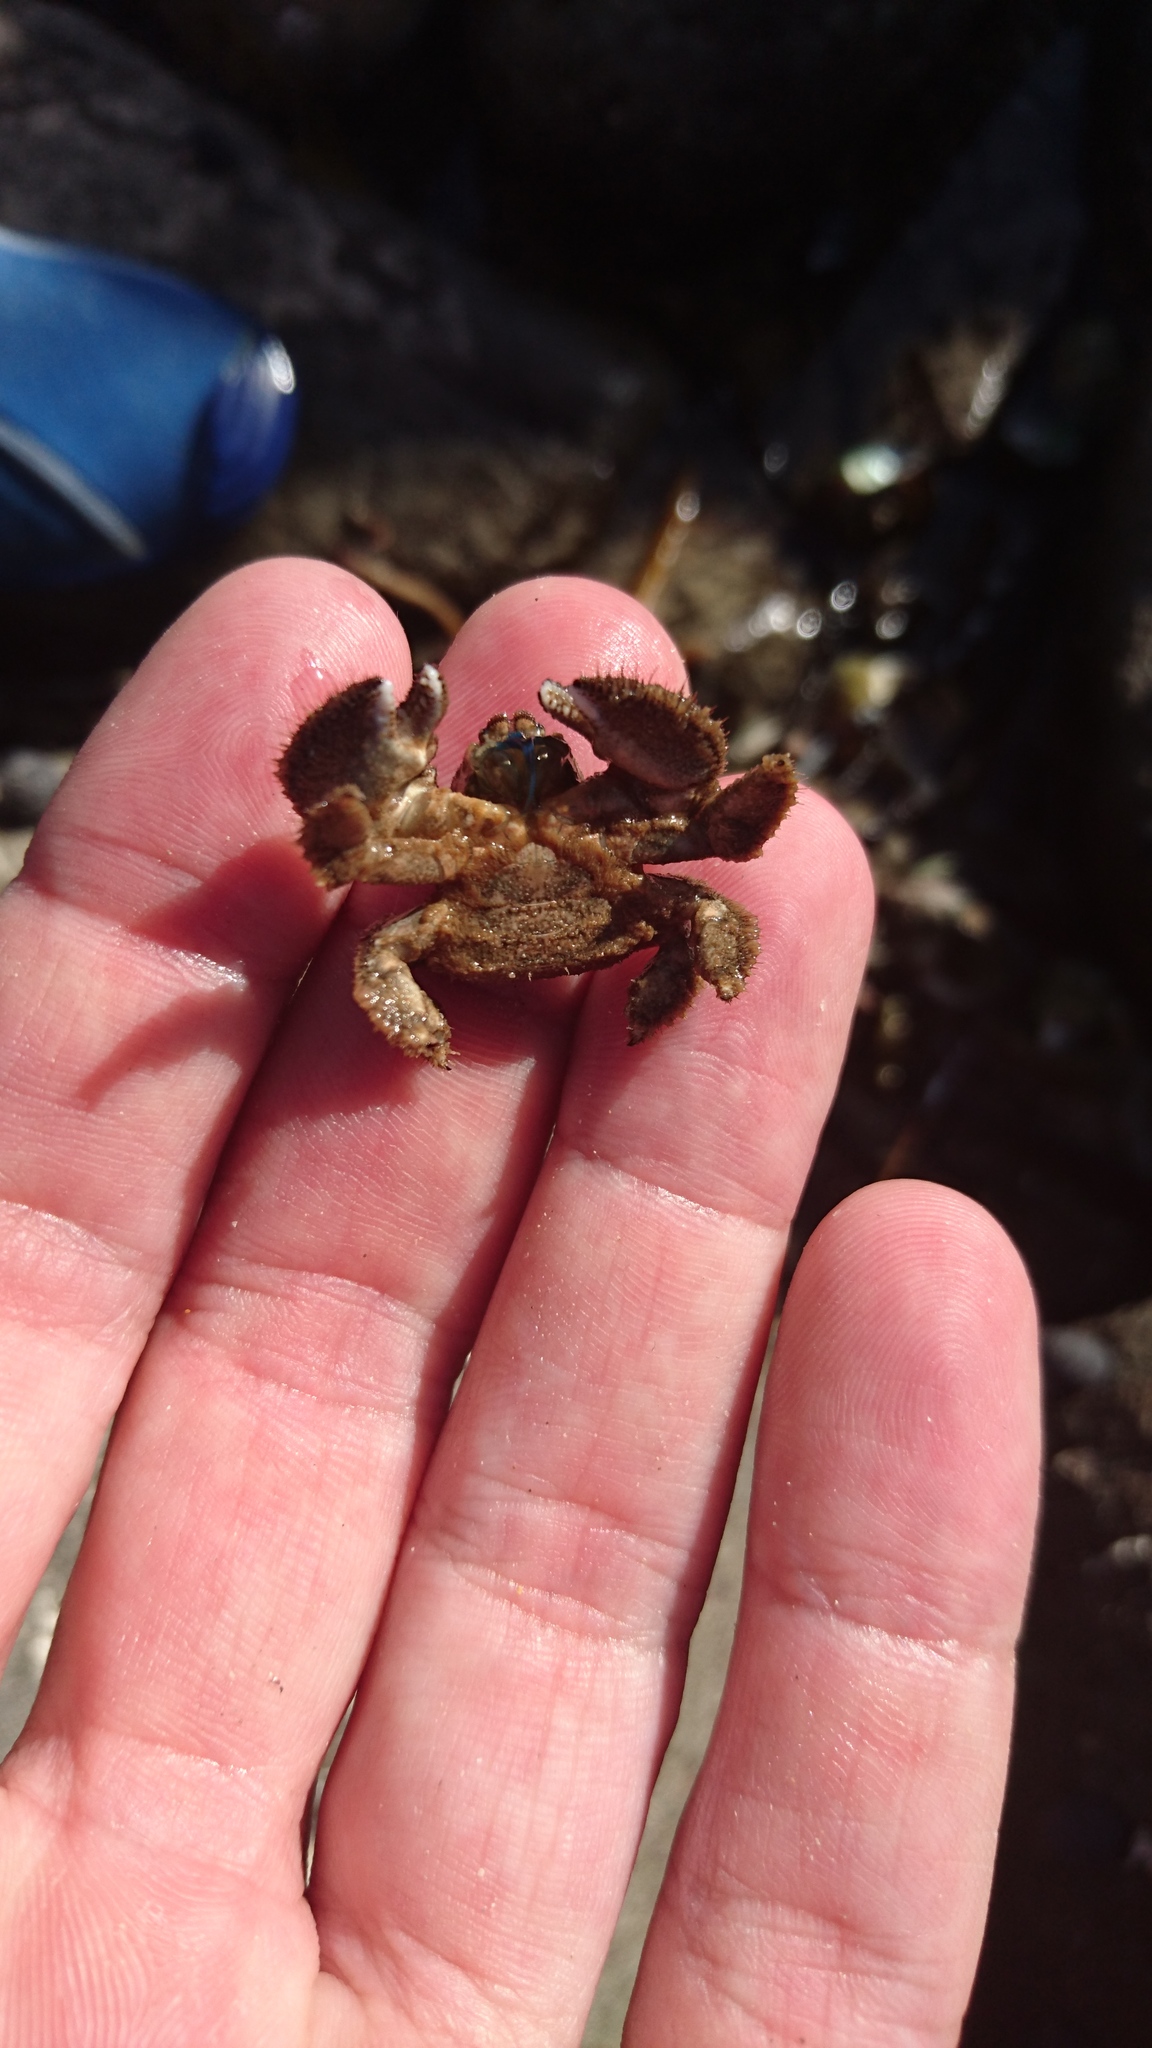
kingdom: Animalia
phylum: Arthropoda
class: Malacostraca
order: Decapoda
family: Lomisidae
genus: Lomis
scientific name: Lomis hirta
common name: Hairy stone crab
